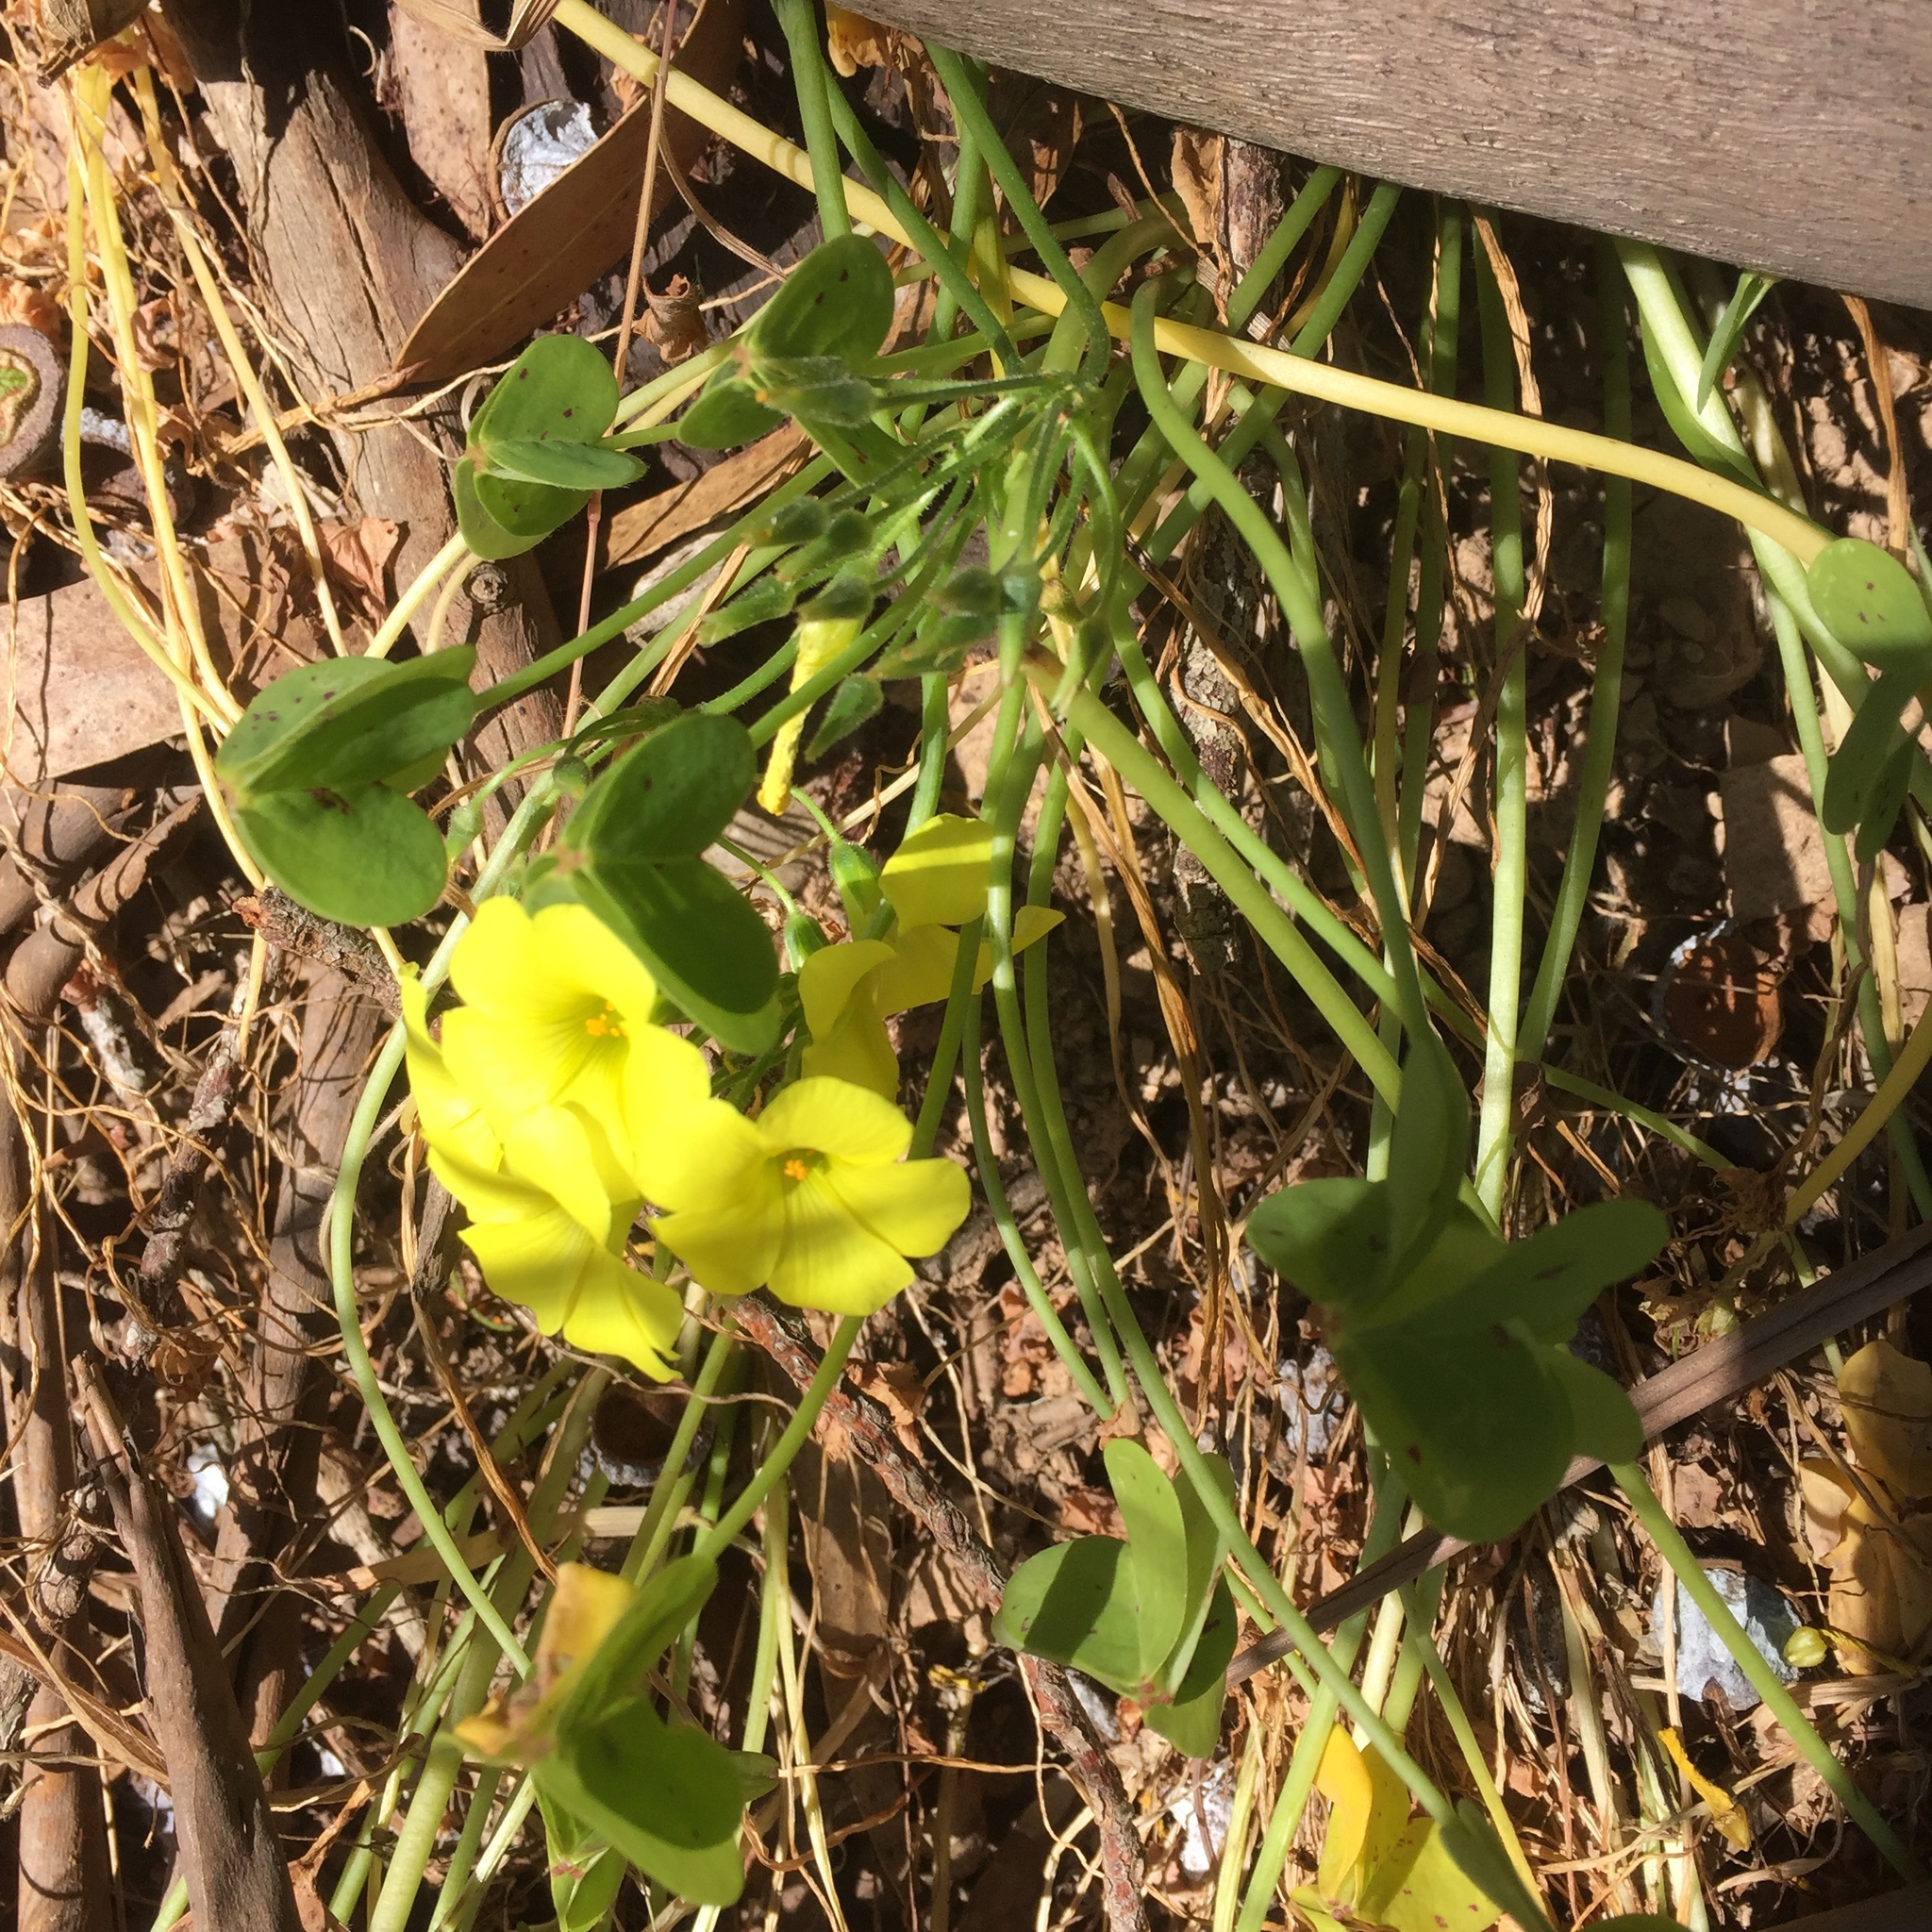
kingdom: Plantae
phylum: Tracheophyta
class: Magnoliopsida
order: Oxalidales
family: Oxalidaceae
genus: Oxalis
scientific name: Oxalis pes-caprae
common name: Bermuda-buttercup
